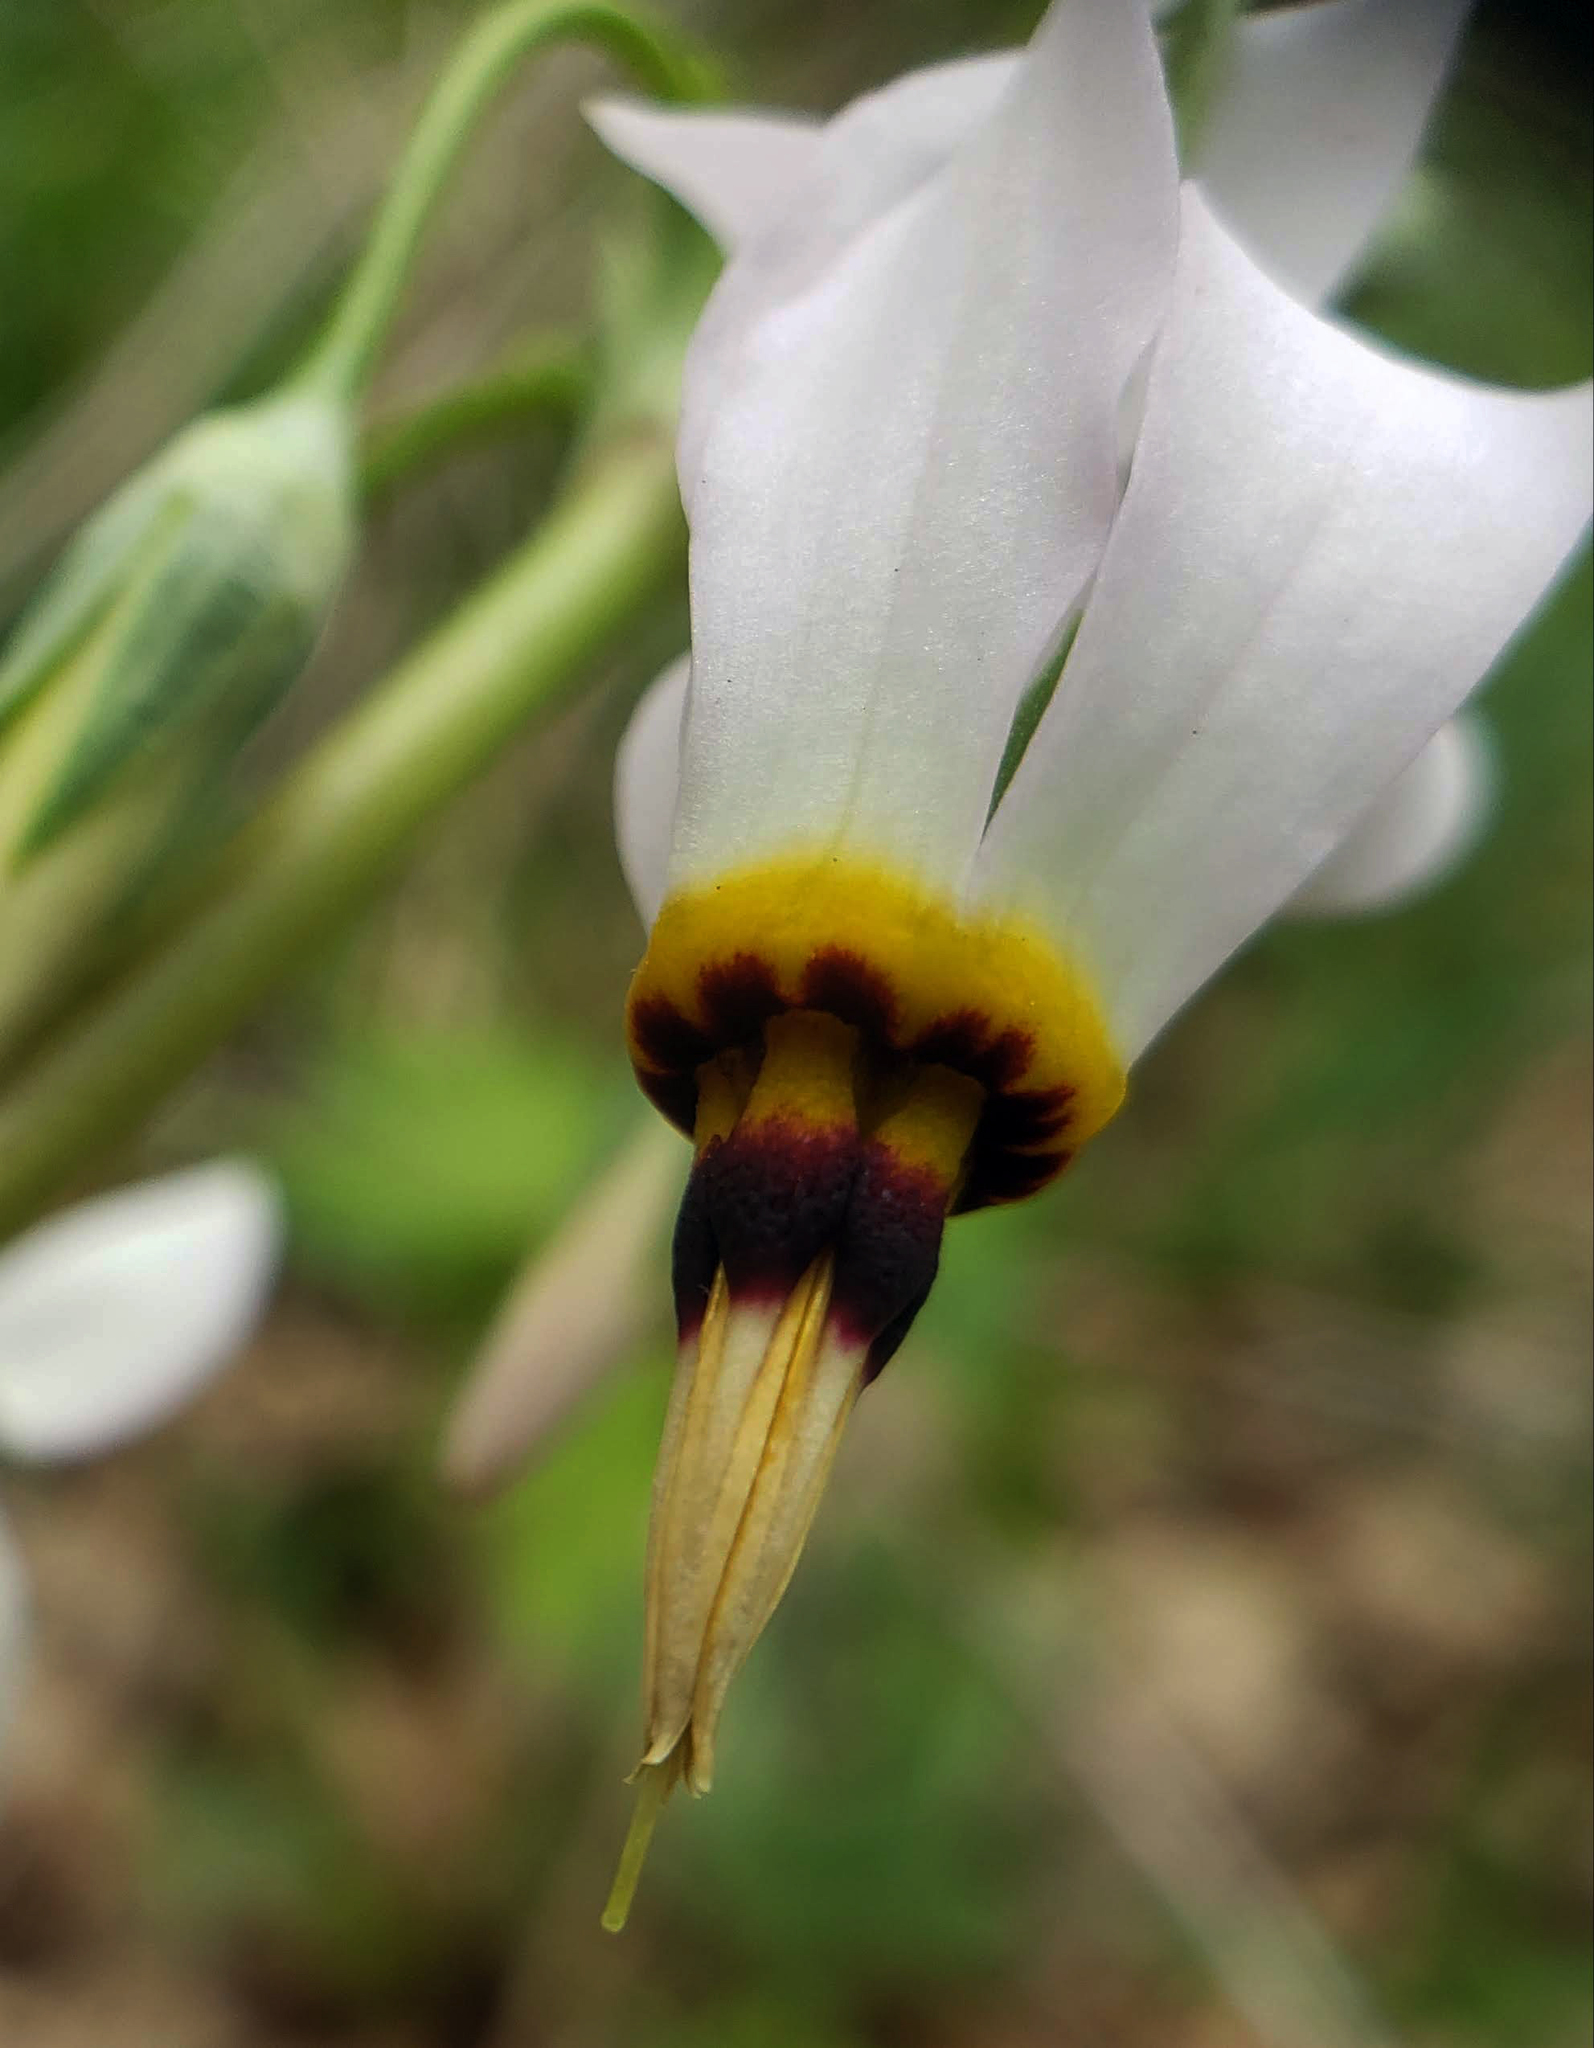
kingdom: Plantae
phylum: Tracheophyta
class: Magnoliopsida
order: Ericales
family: Primulaceae
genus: Dodecatheon
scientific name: Dodecatheon meadia
